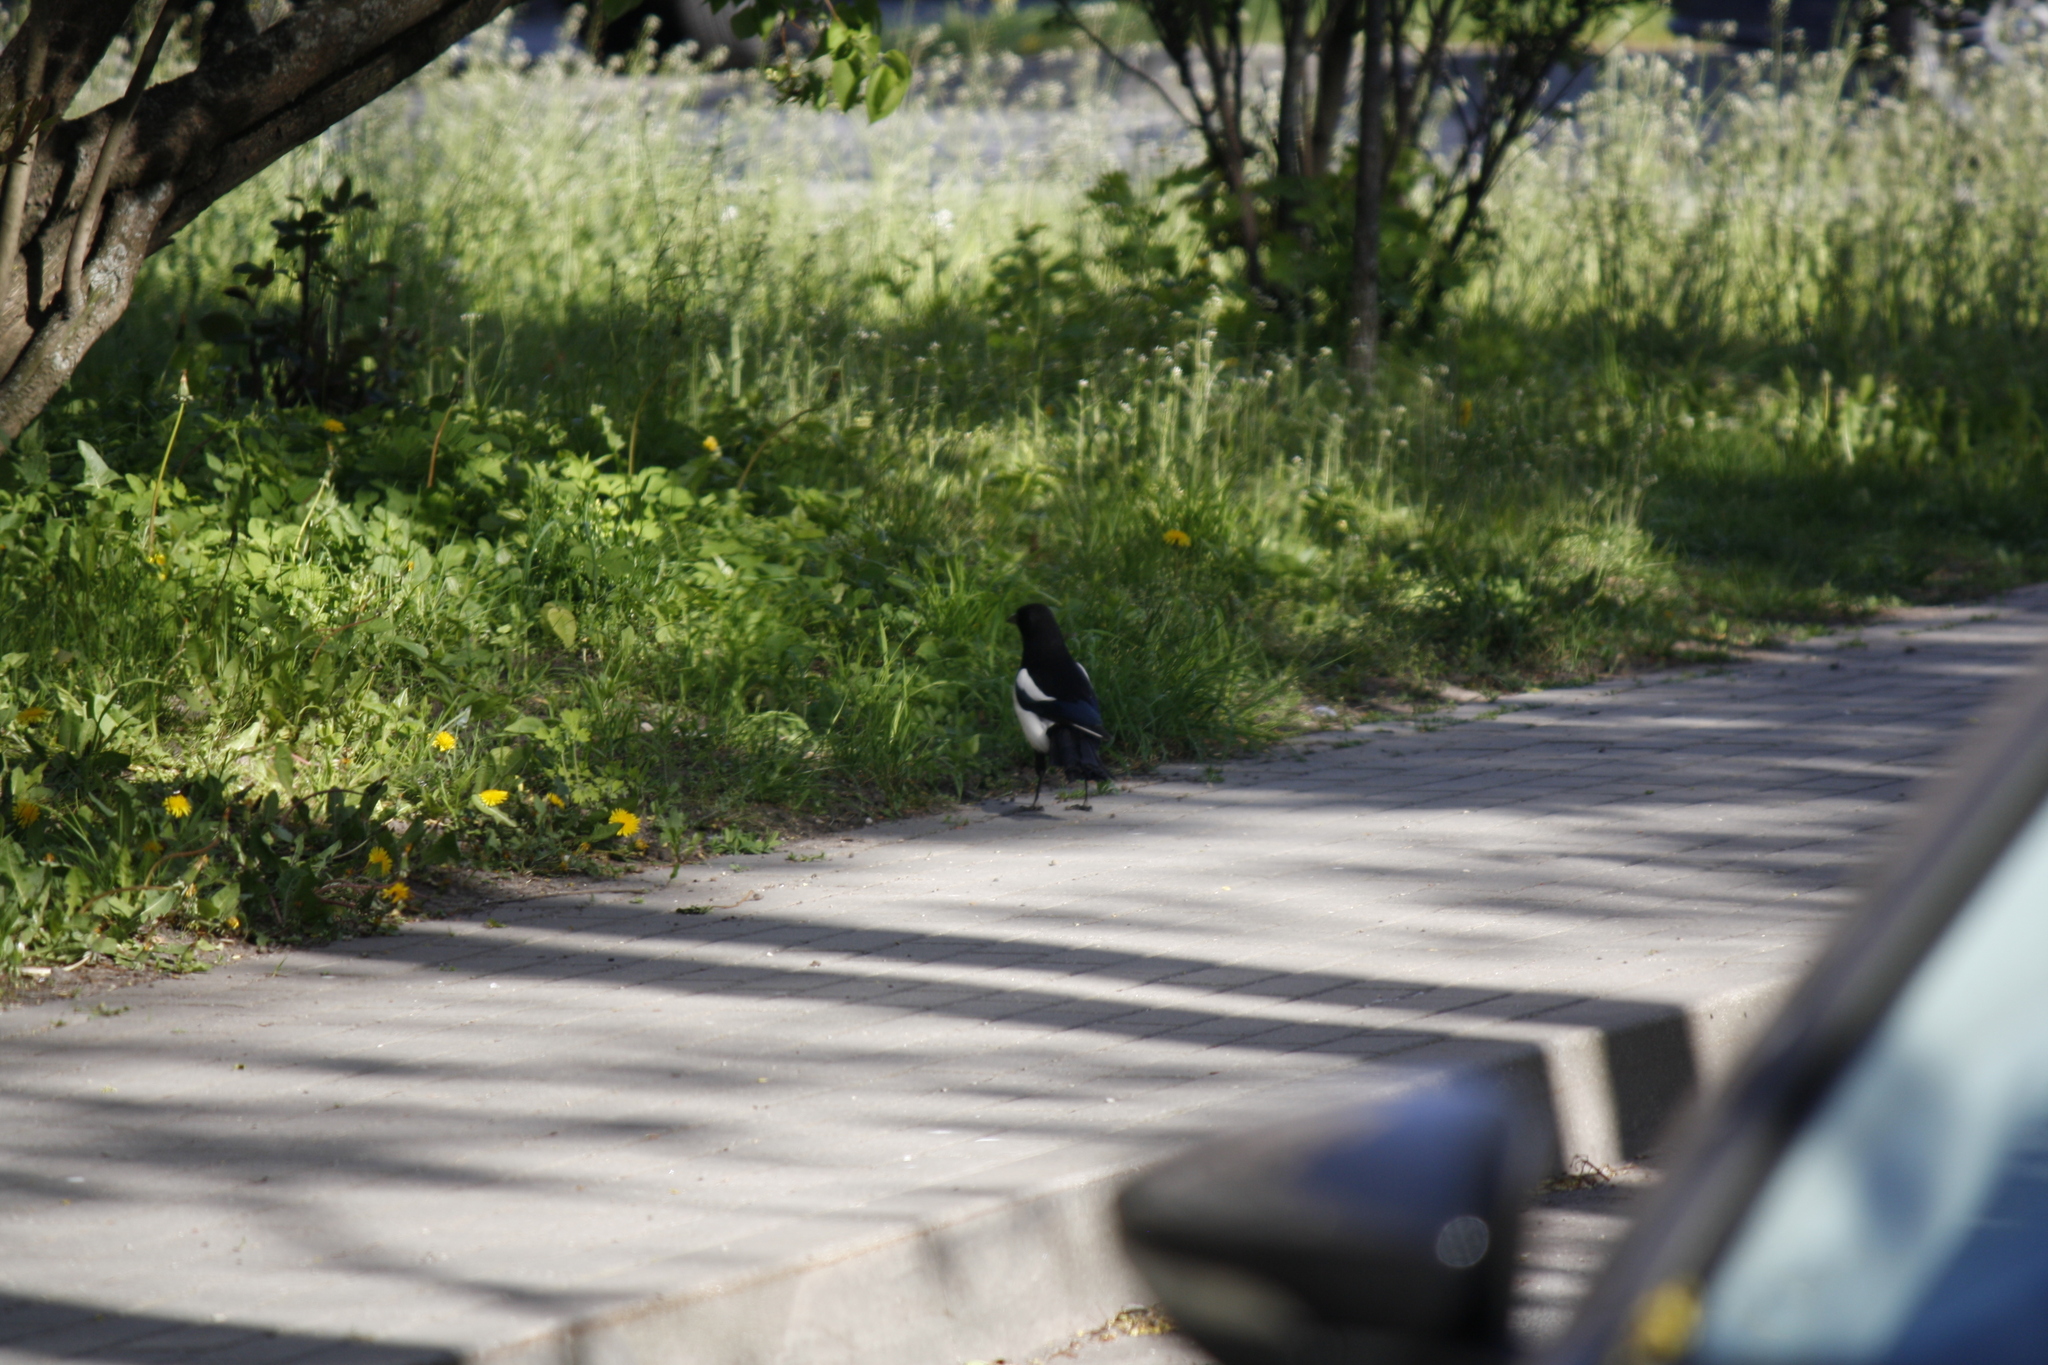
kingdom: Animalia
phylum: Chordata
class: Aves
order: Passeriformes
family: Corvidae
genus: Pica
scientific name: Pica pica
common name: Eurasian magpie
